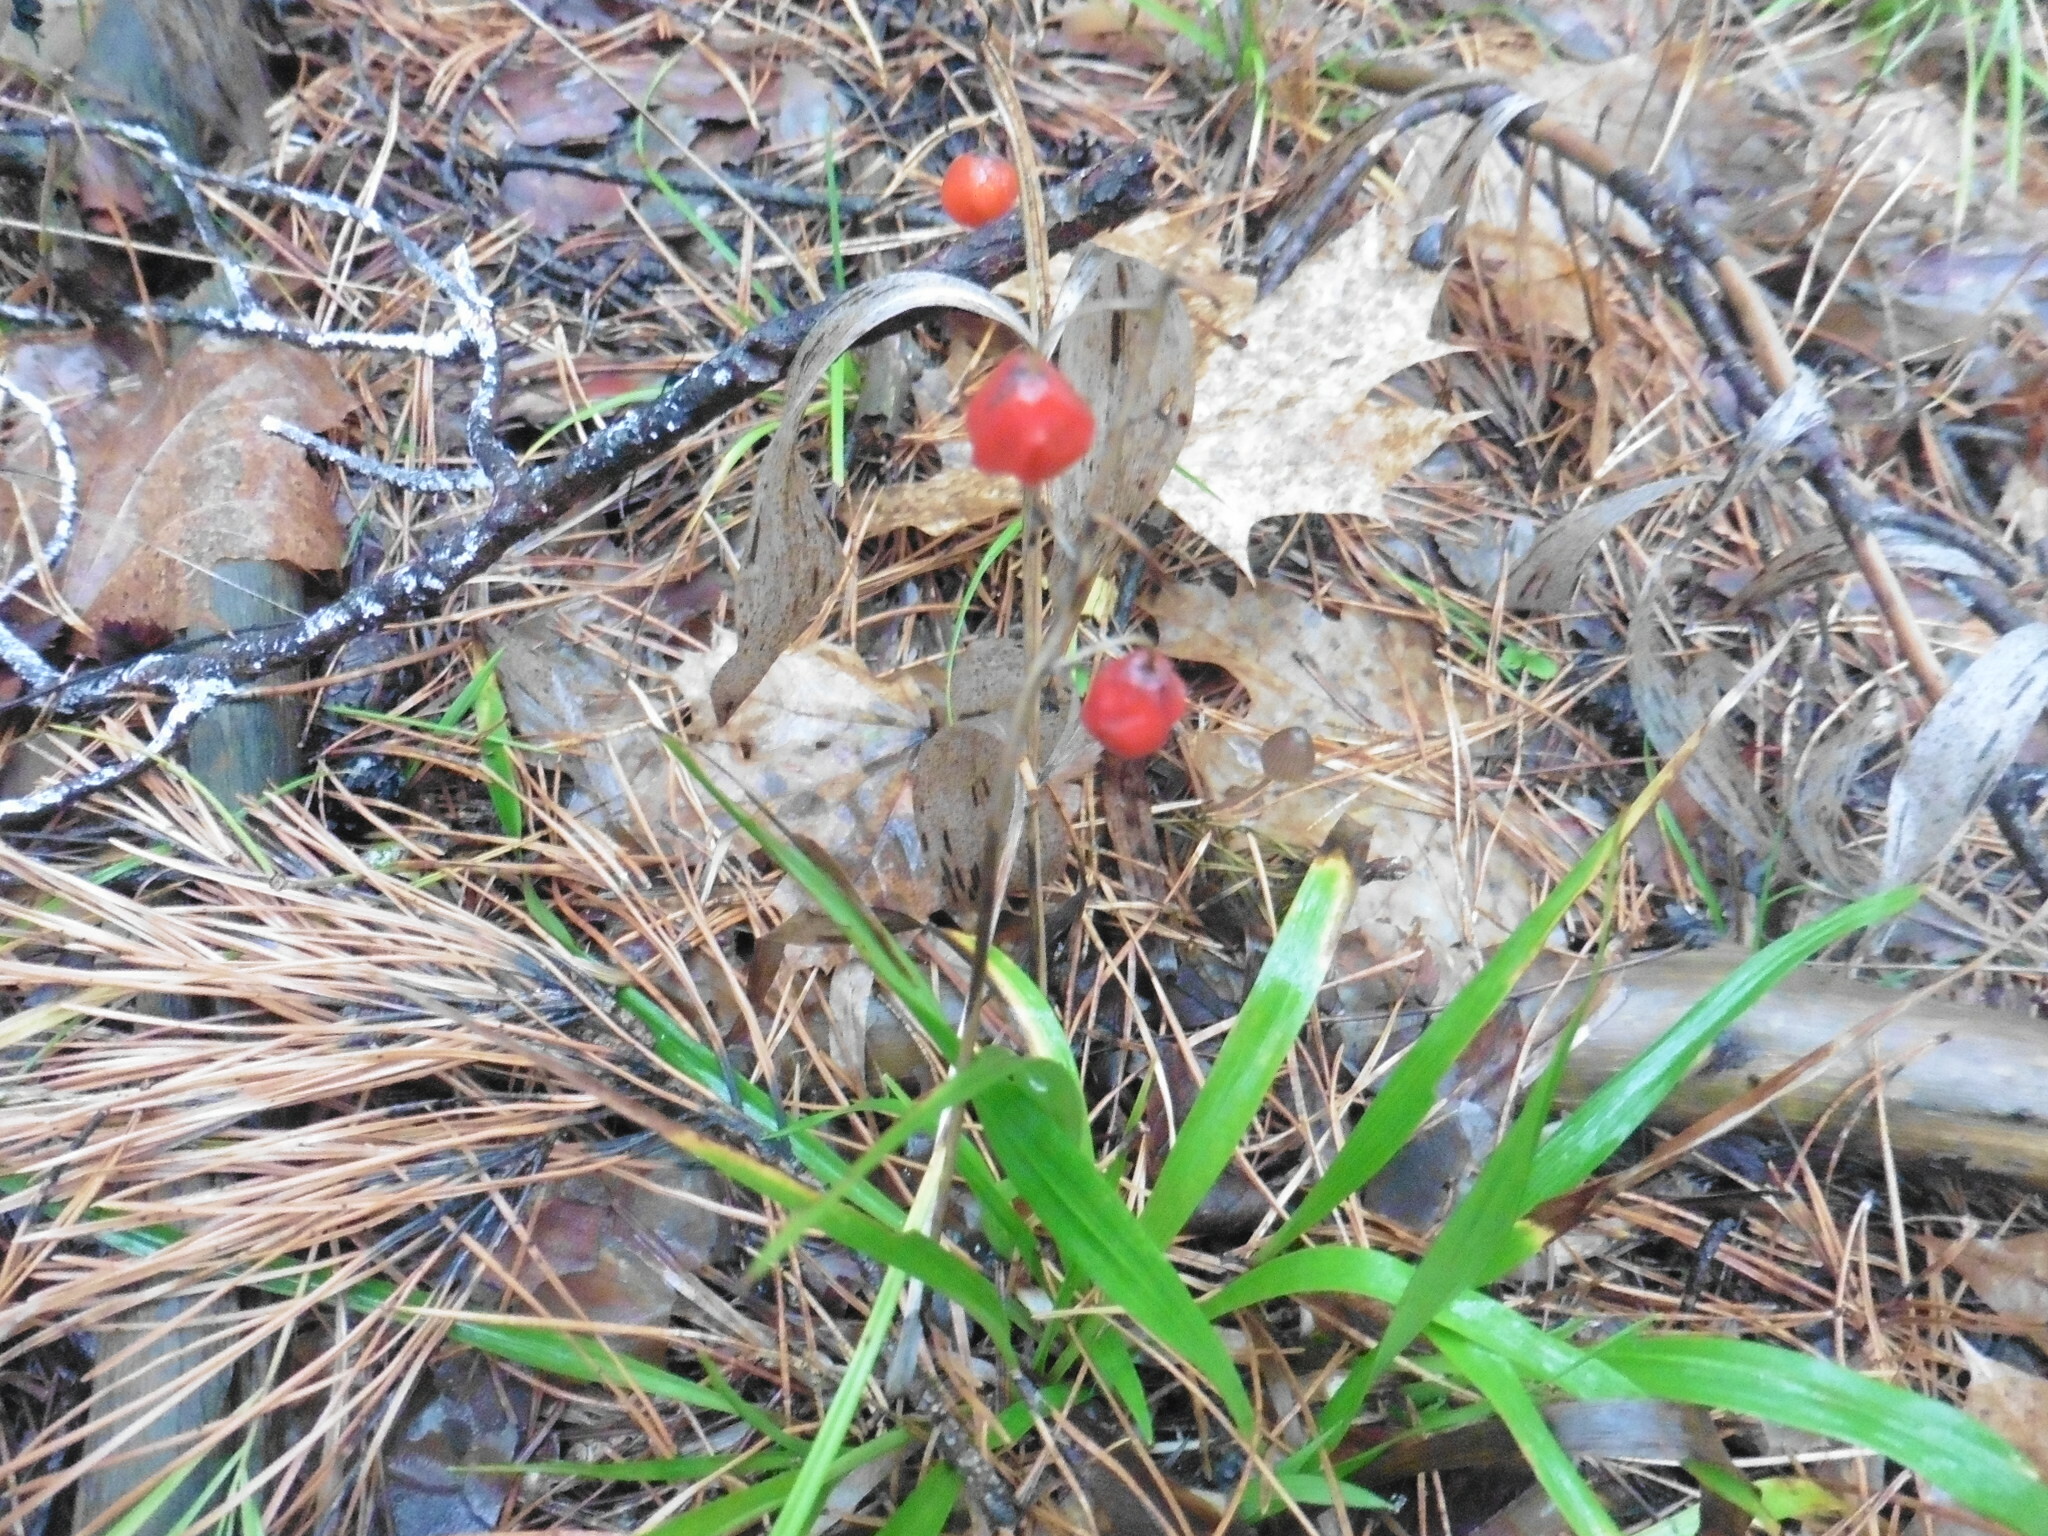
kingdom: Plantae
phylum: Tracheophyta
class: Liliopsida
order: Asparagales
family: Asparagaceae
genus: Convallaria
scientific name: Convallaria majalis
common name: Lily-of-the-valley
